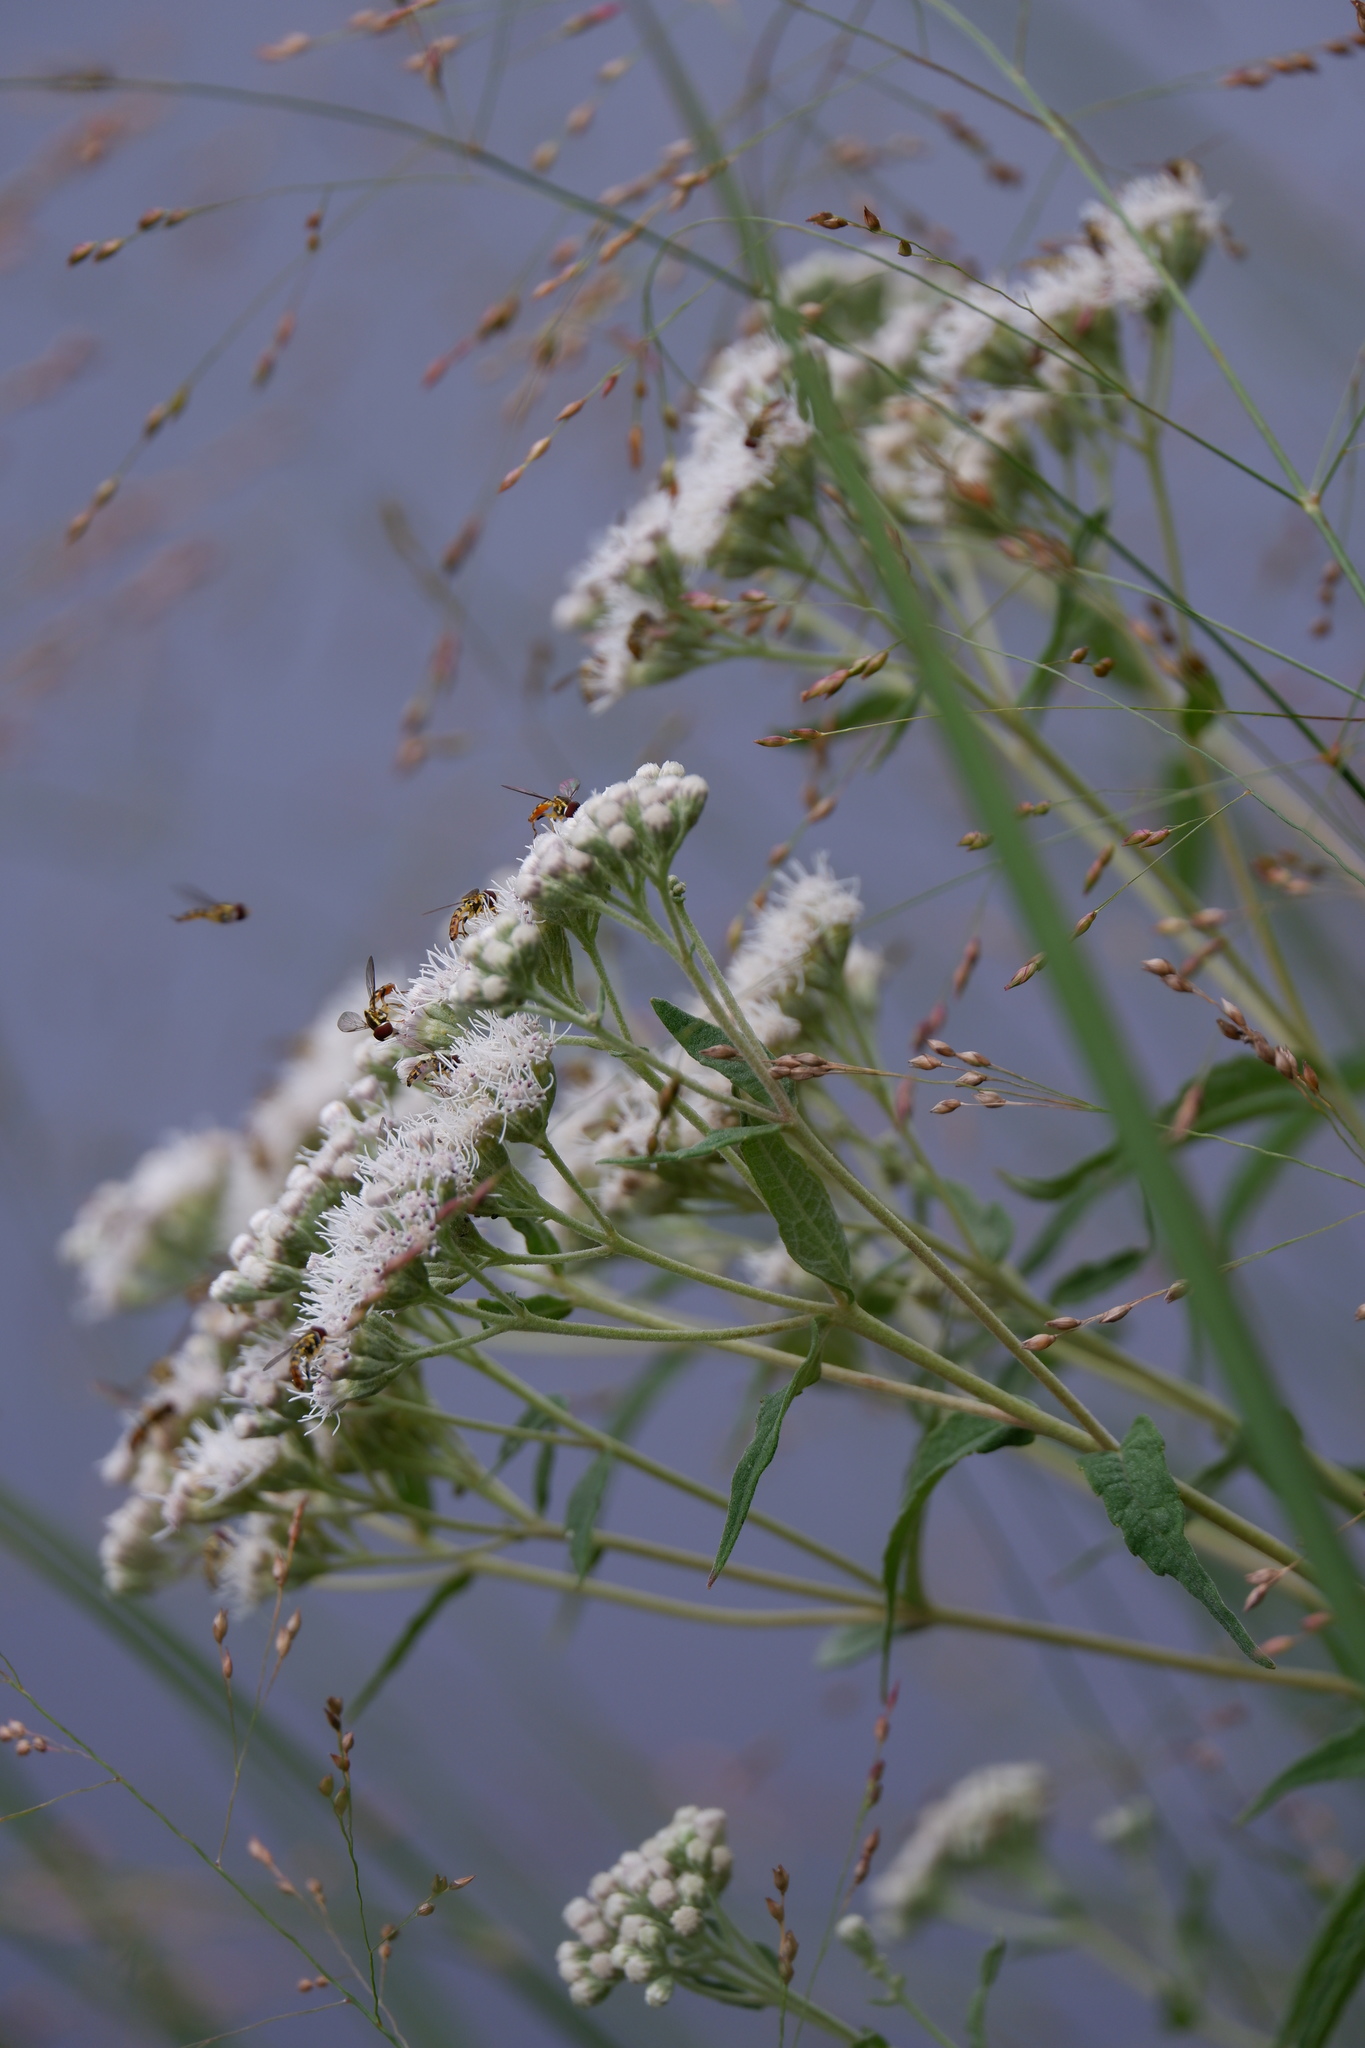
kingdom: Plantae
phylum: Tracheophyta
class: Magnoliopsida
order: Asterales
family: Asteraceae
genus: Eupatorium
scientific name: Eupatorium resinosum
